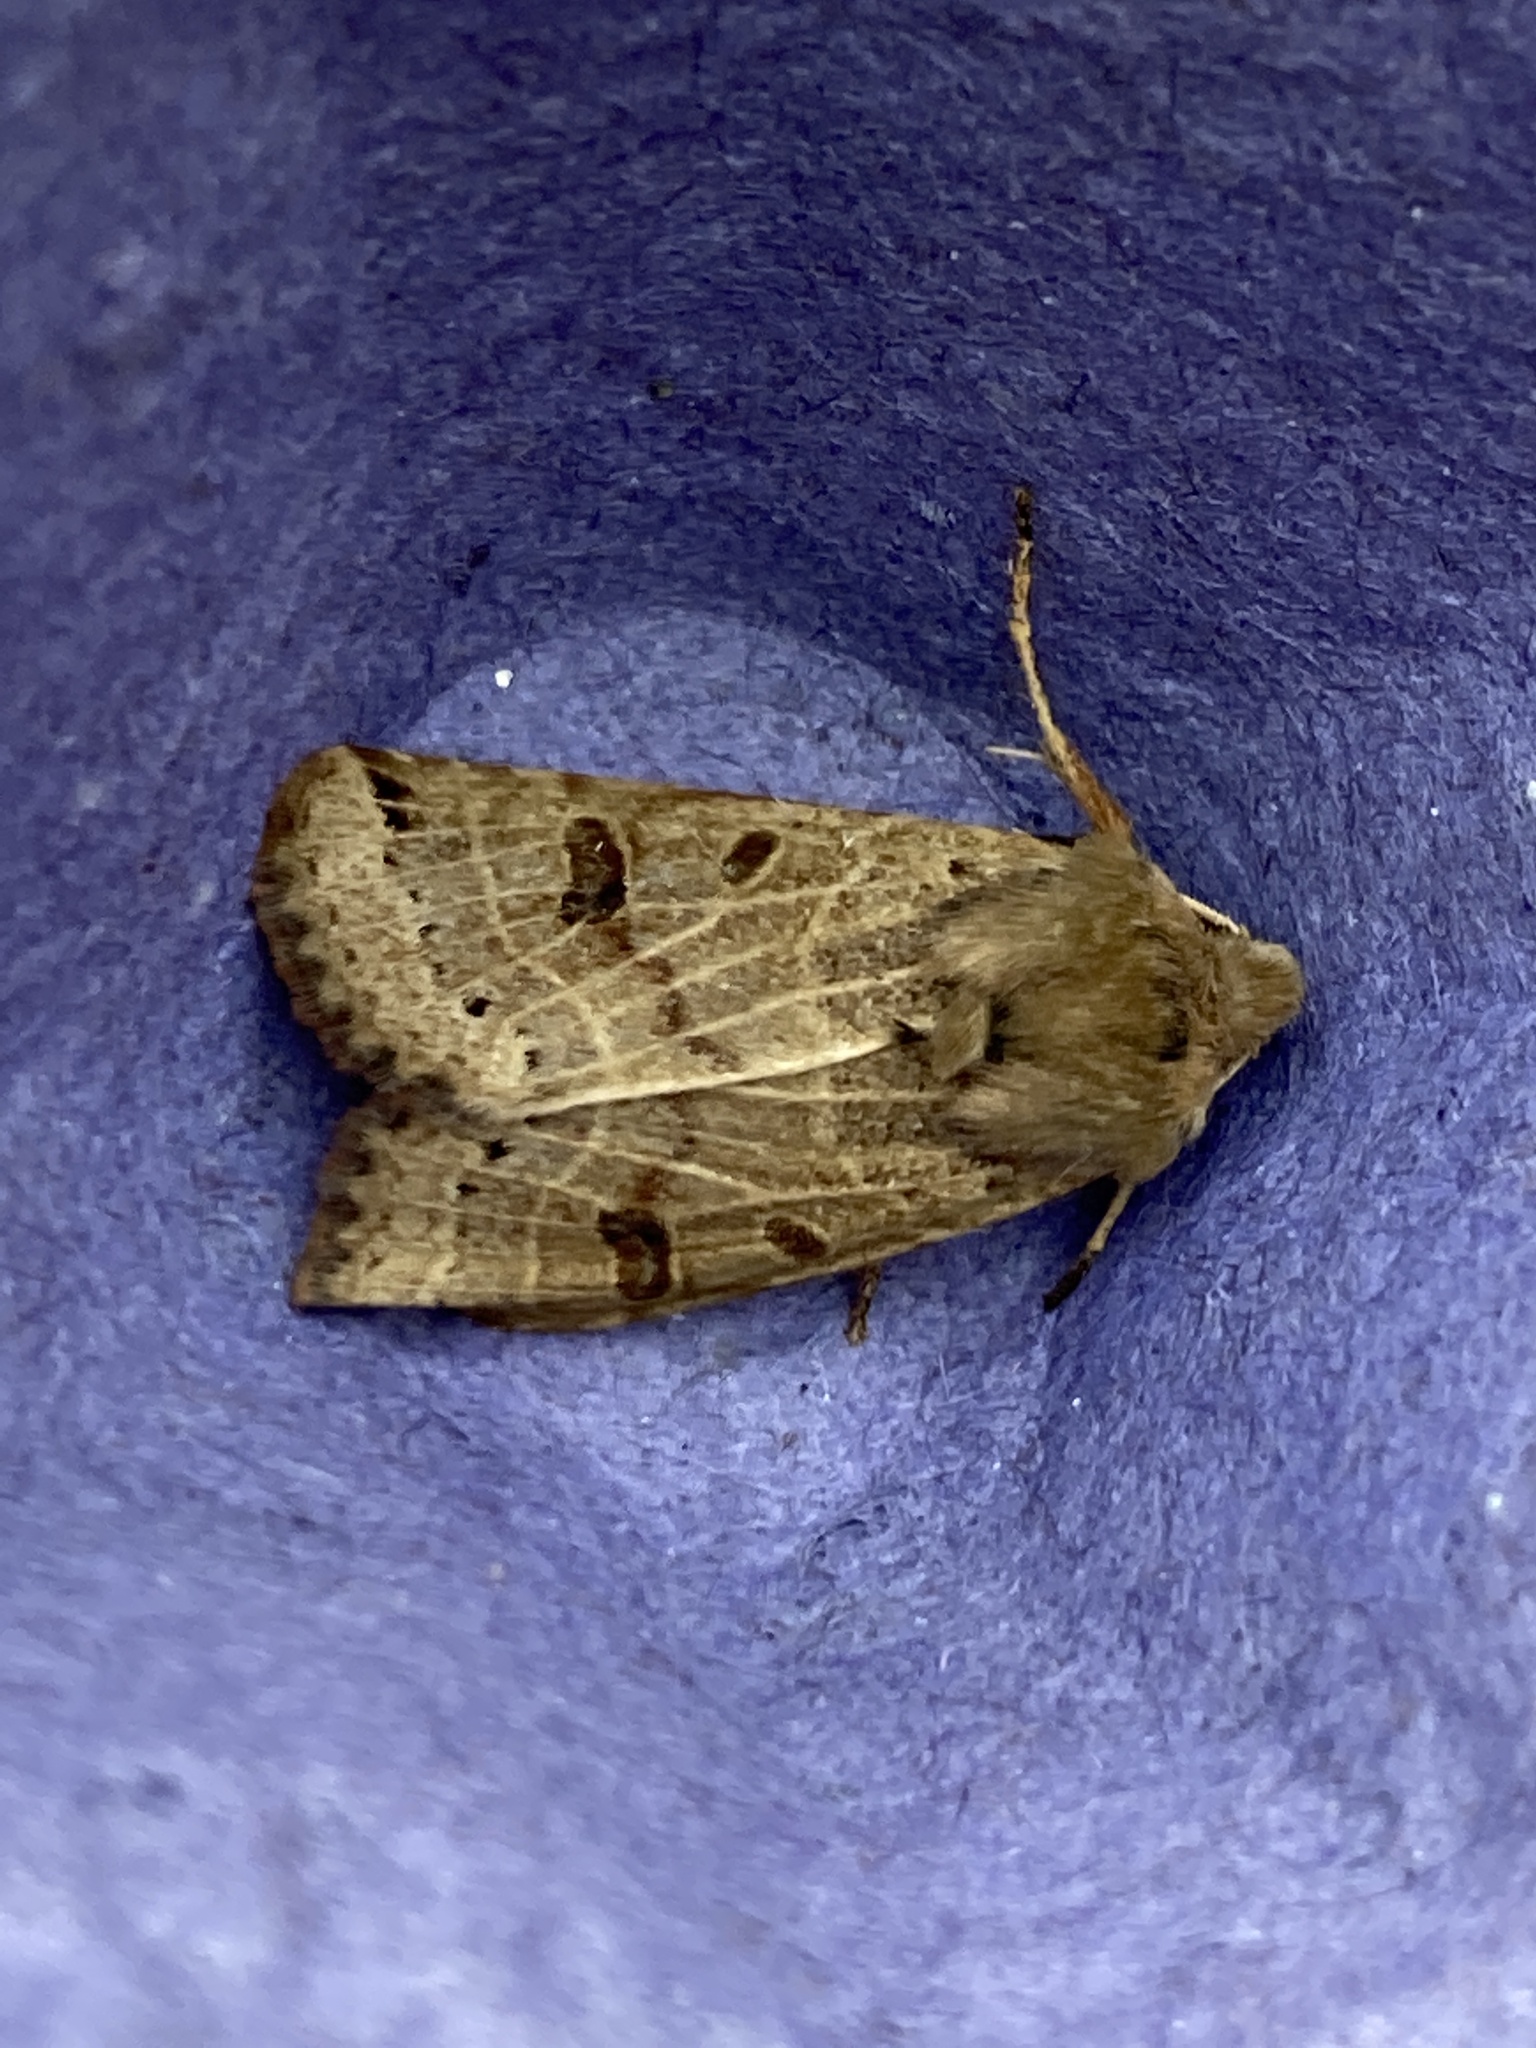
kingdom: Animalia
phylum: Arthropoda
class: Insecta
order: Lepidoptera
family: Noctuidae
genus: Agrochola
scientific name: Agrochola lunosa
